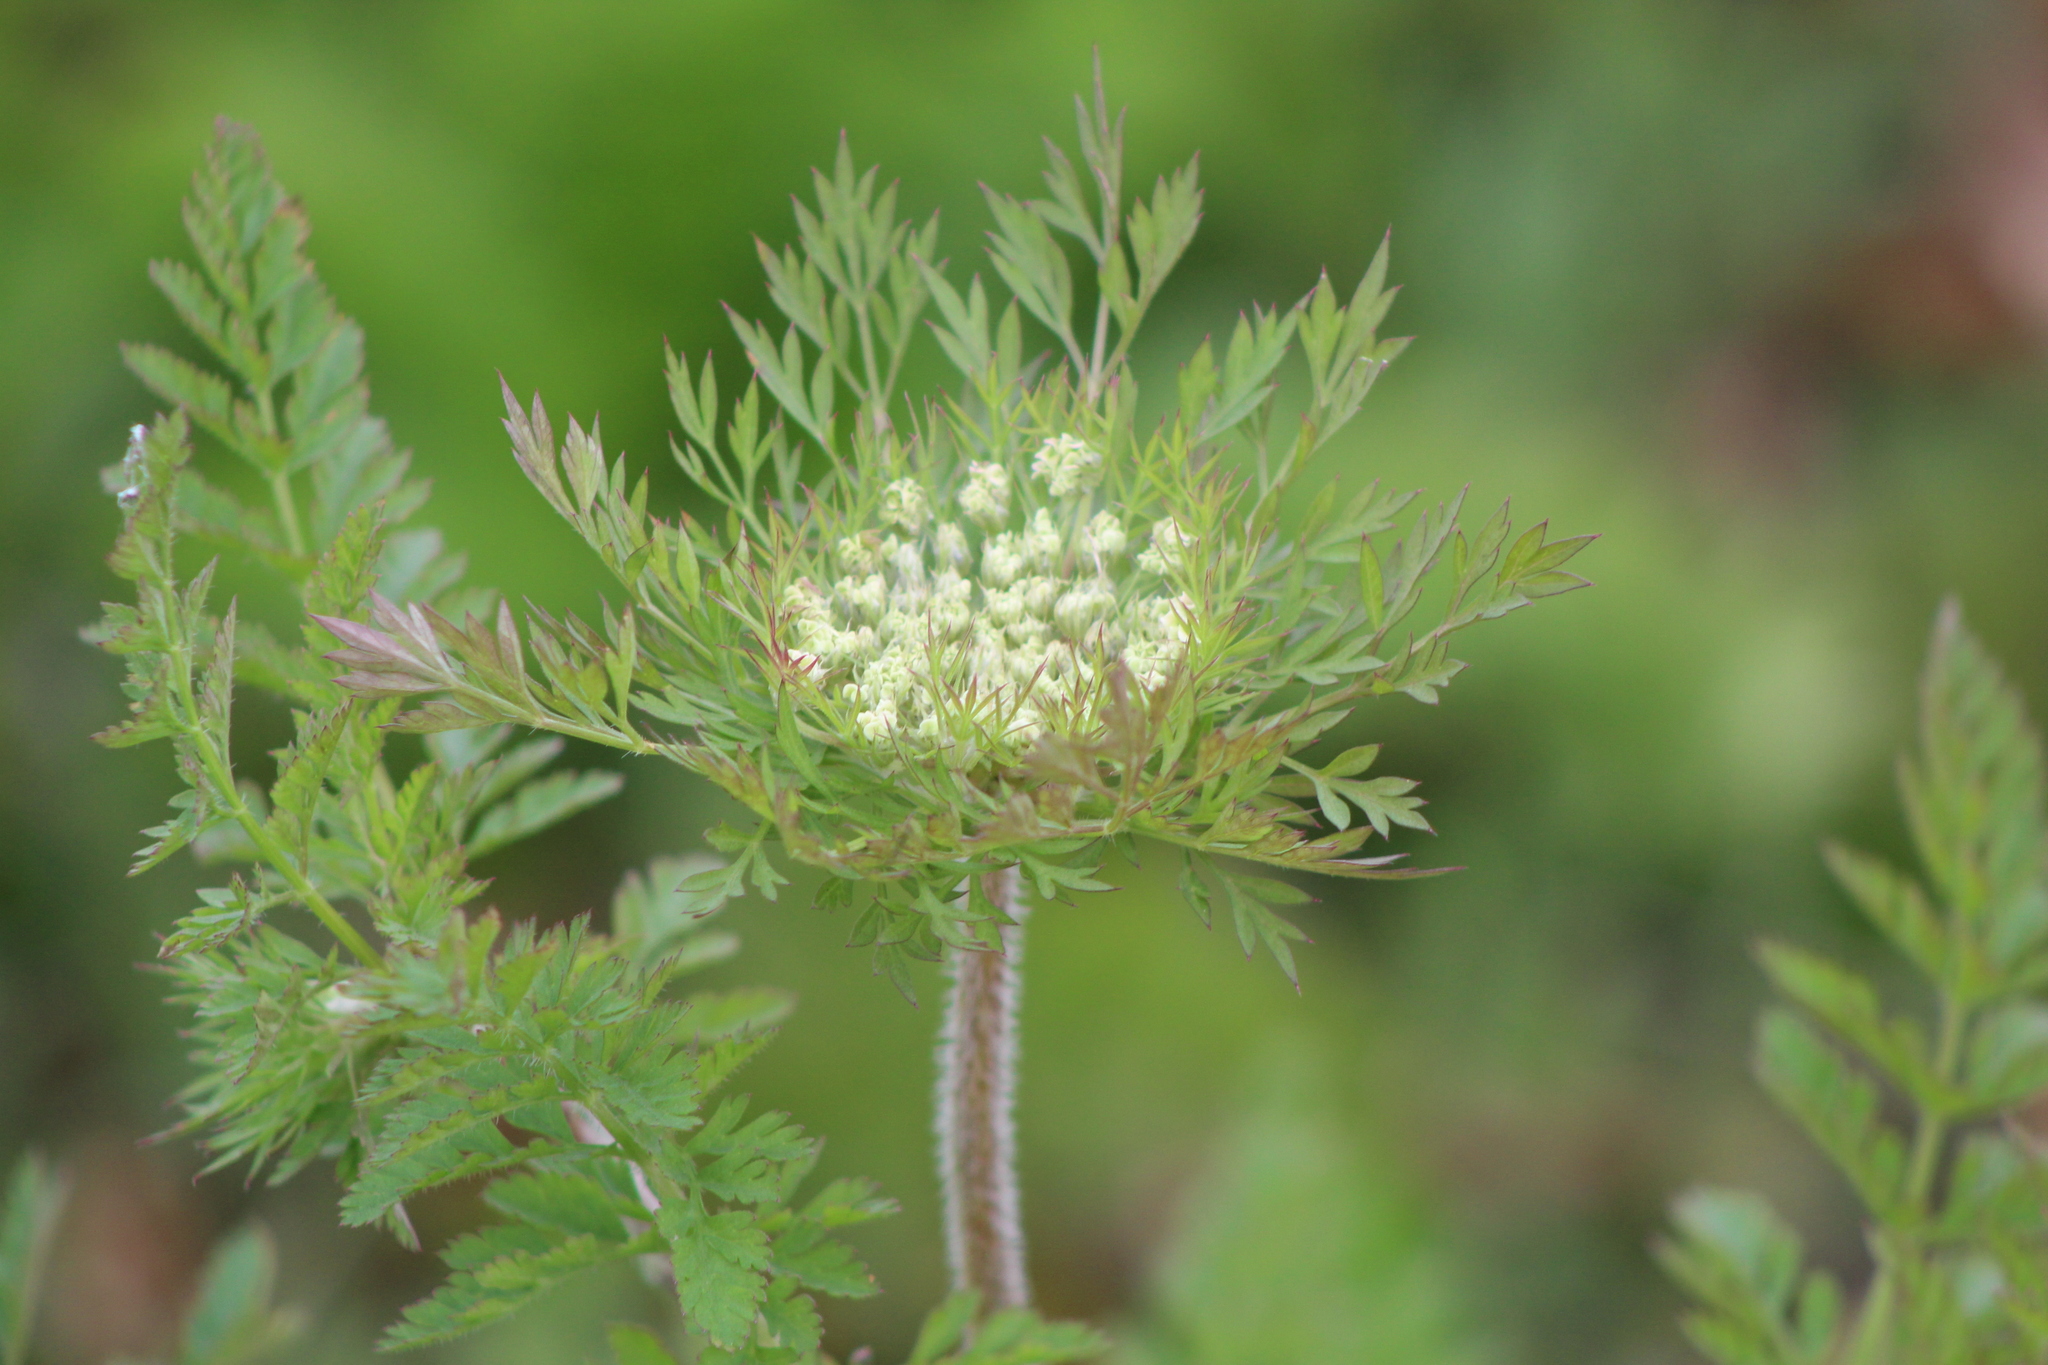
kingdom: Plantae
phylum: Tracheophyta
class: Magnoliopsida
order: Apiales
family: Apiaceae
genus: Daucus
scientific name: Daucus carota
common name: Wild carrot
